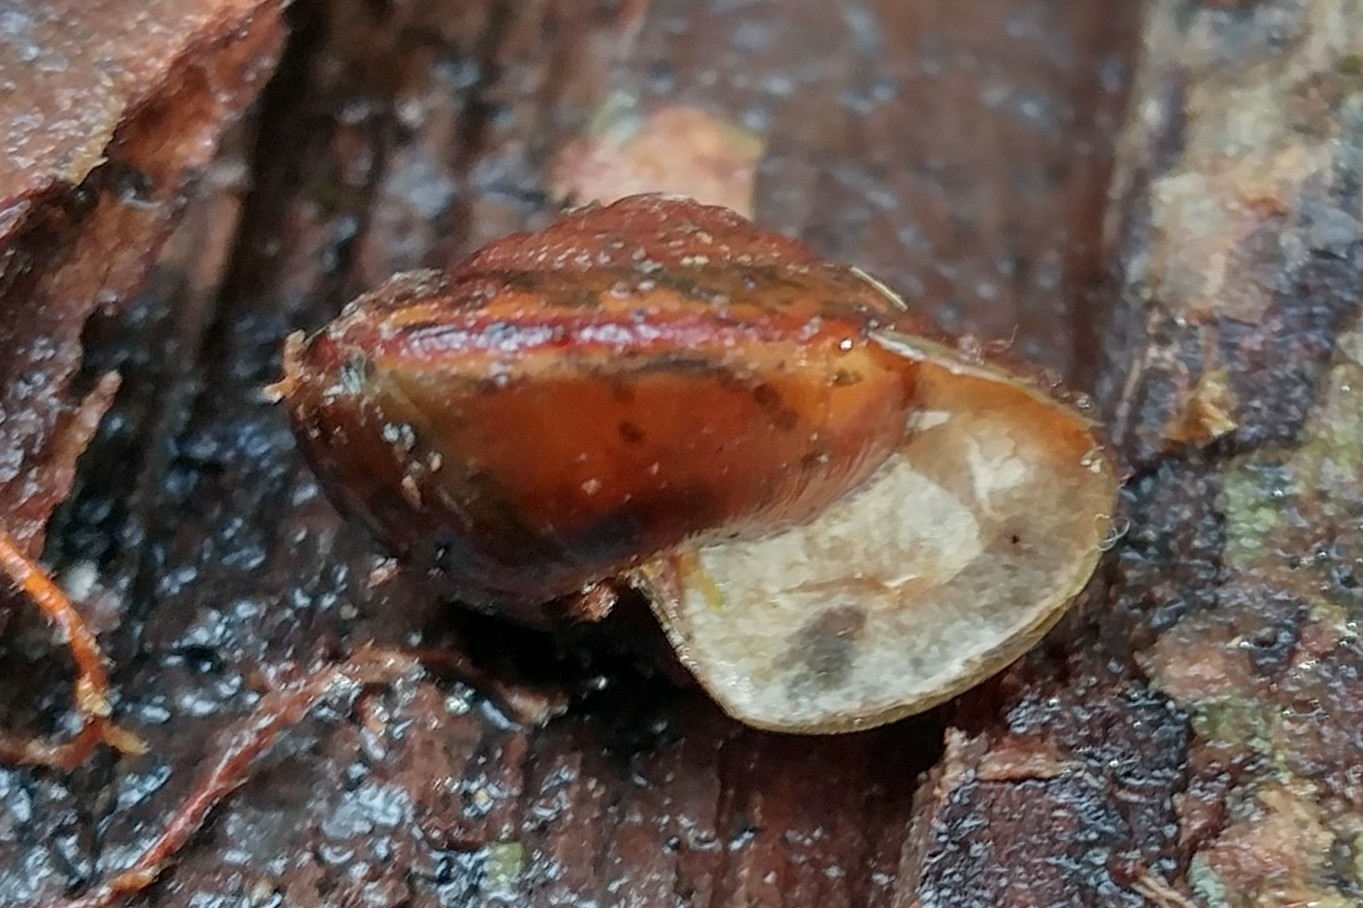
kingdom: Animalia
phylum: Mollusca
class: Gastropoda
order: Stylommatophora
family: Xanthonychidae
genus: Monadenia
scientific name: Monadenia fidelis
